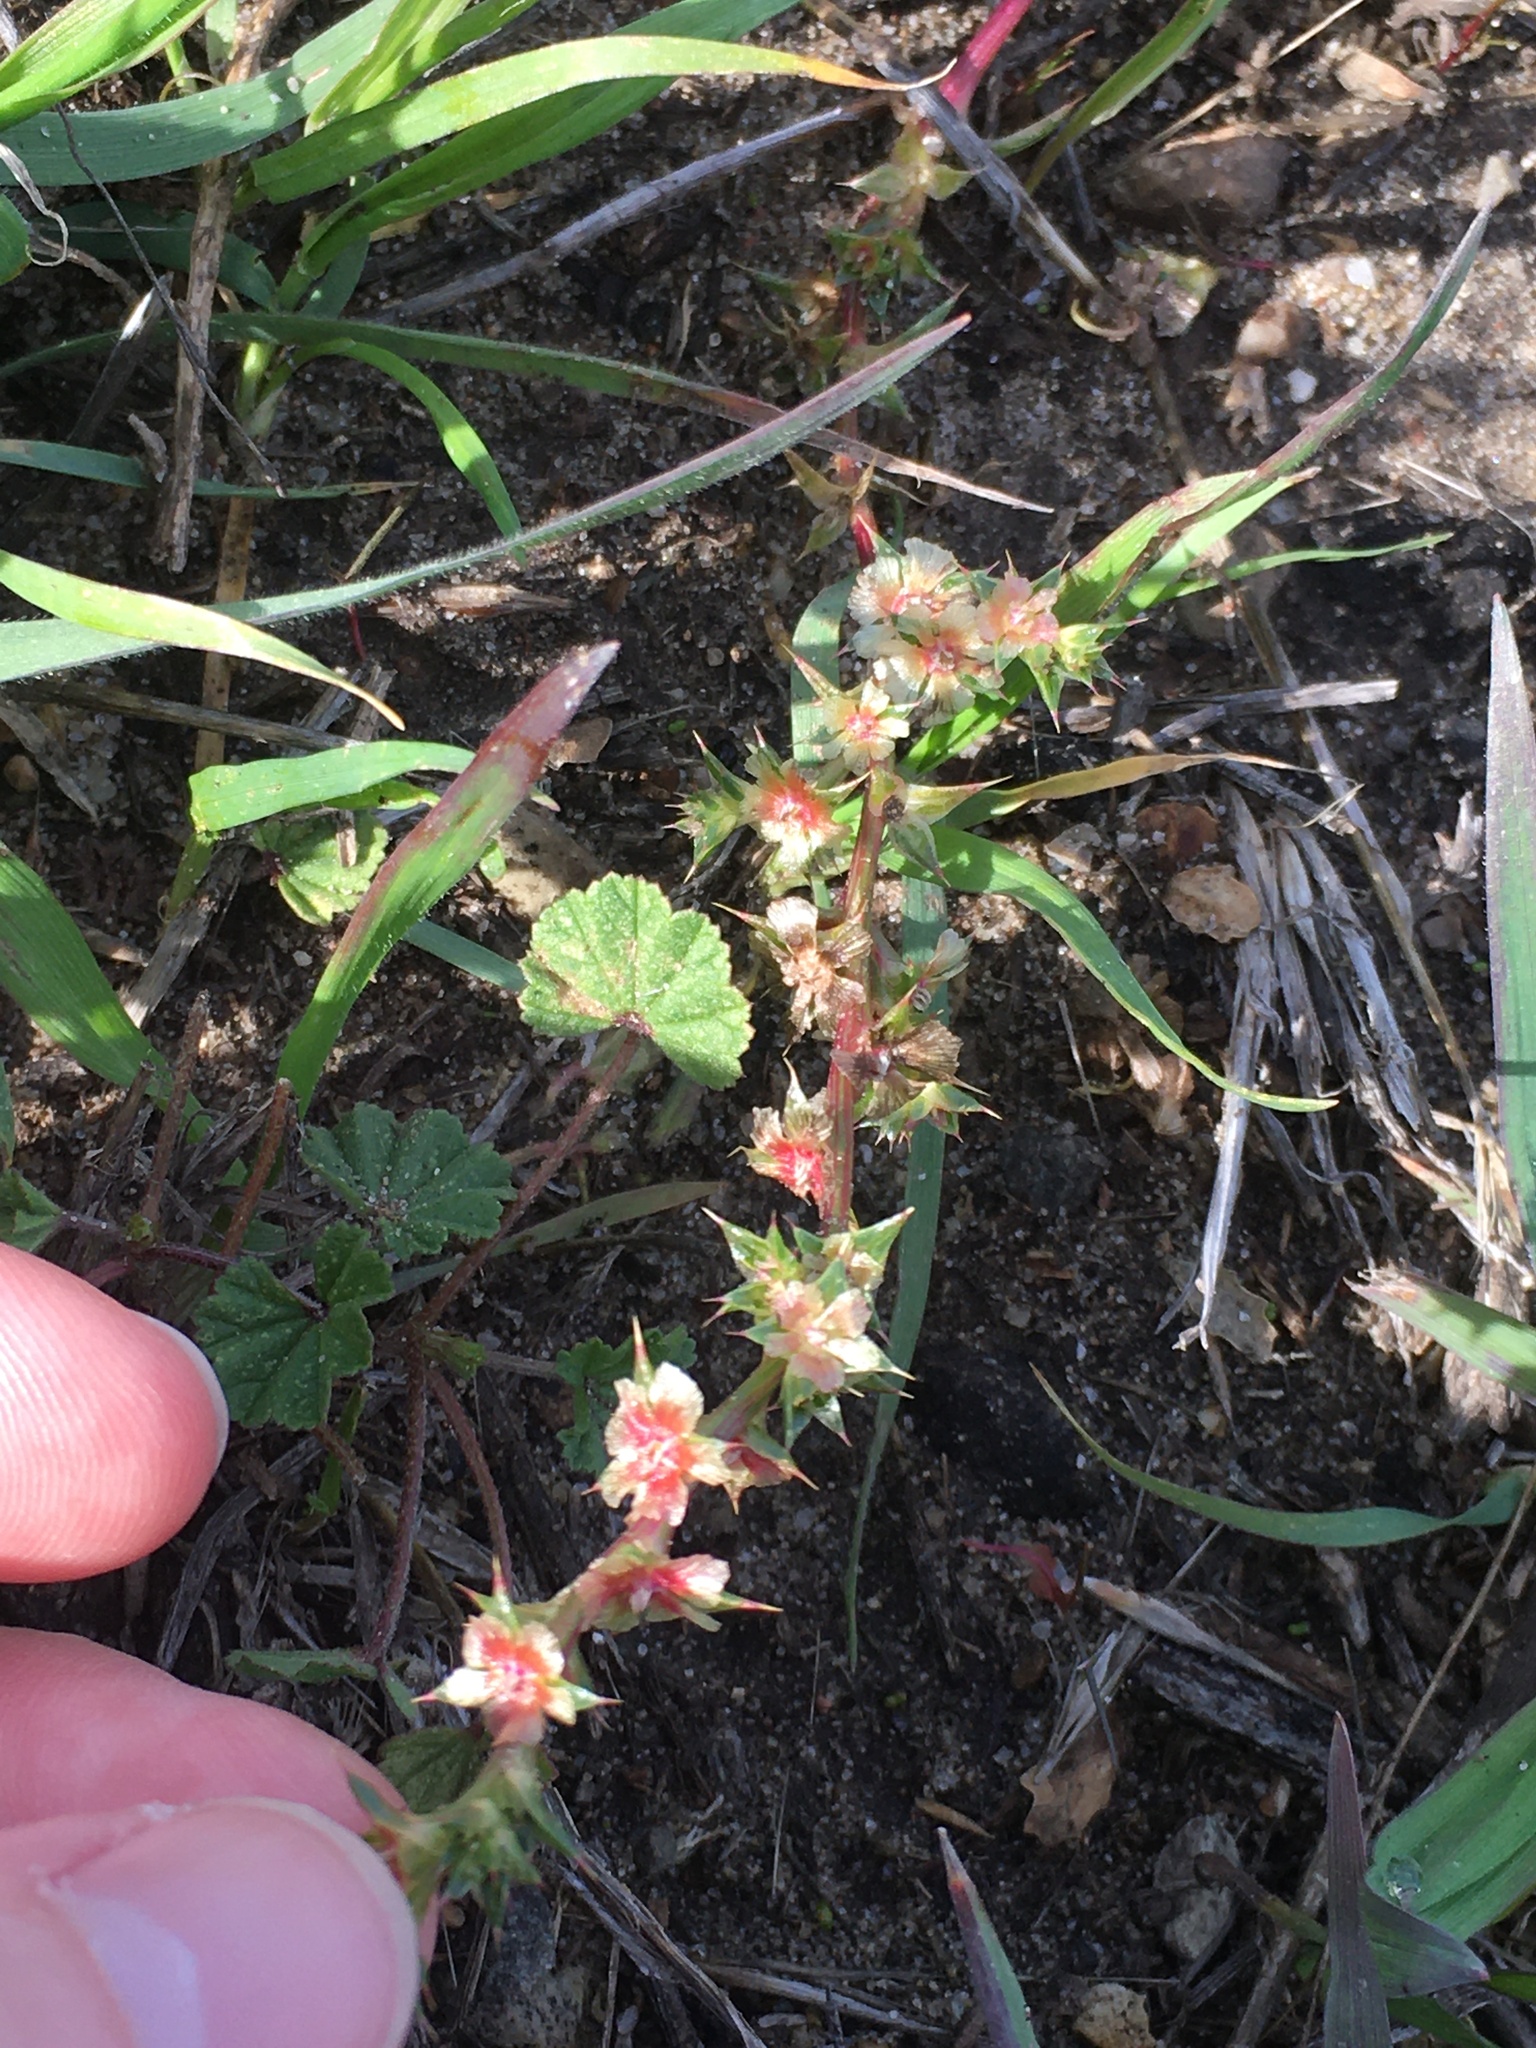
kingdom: Plantae
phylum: Tracheophyta
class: Magnoliopsida
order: Caryophyllales
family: Amaranthaceae
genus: Salsola
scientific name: Salsola australis
